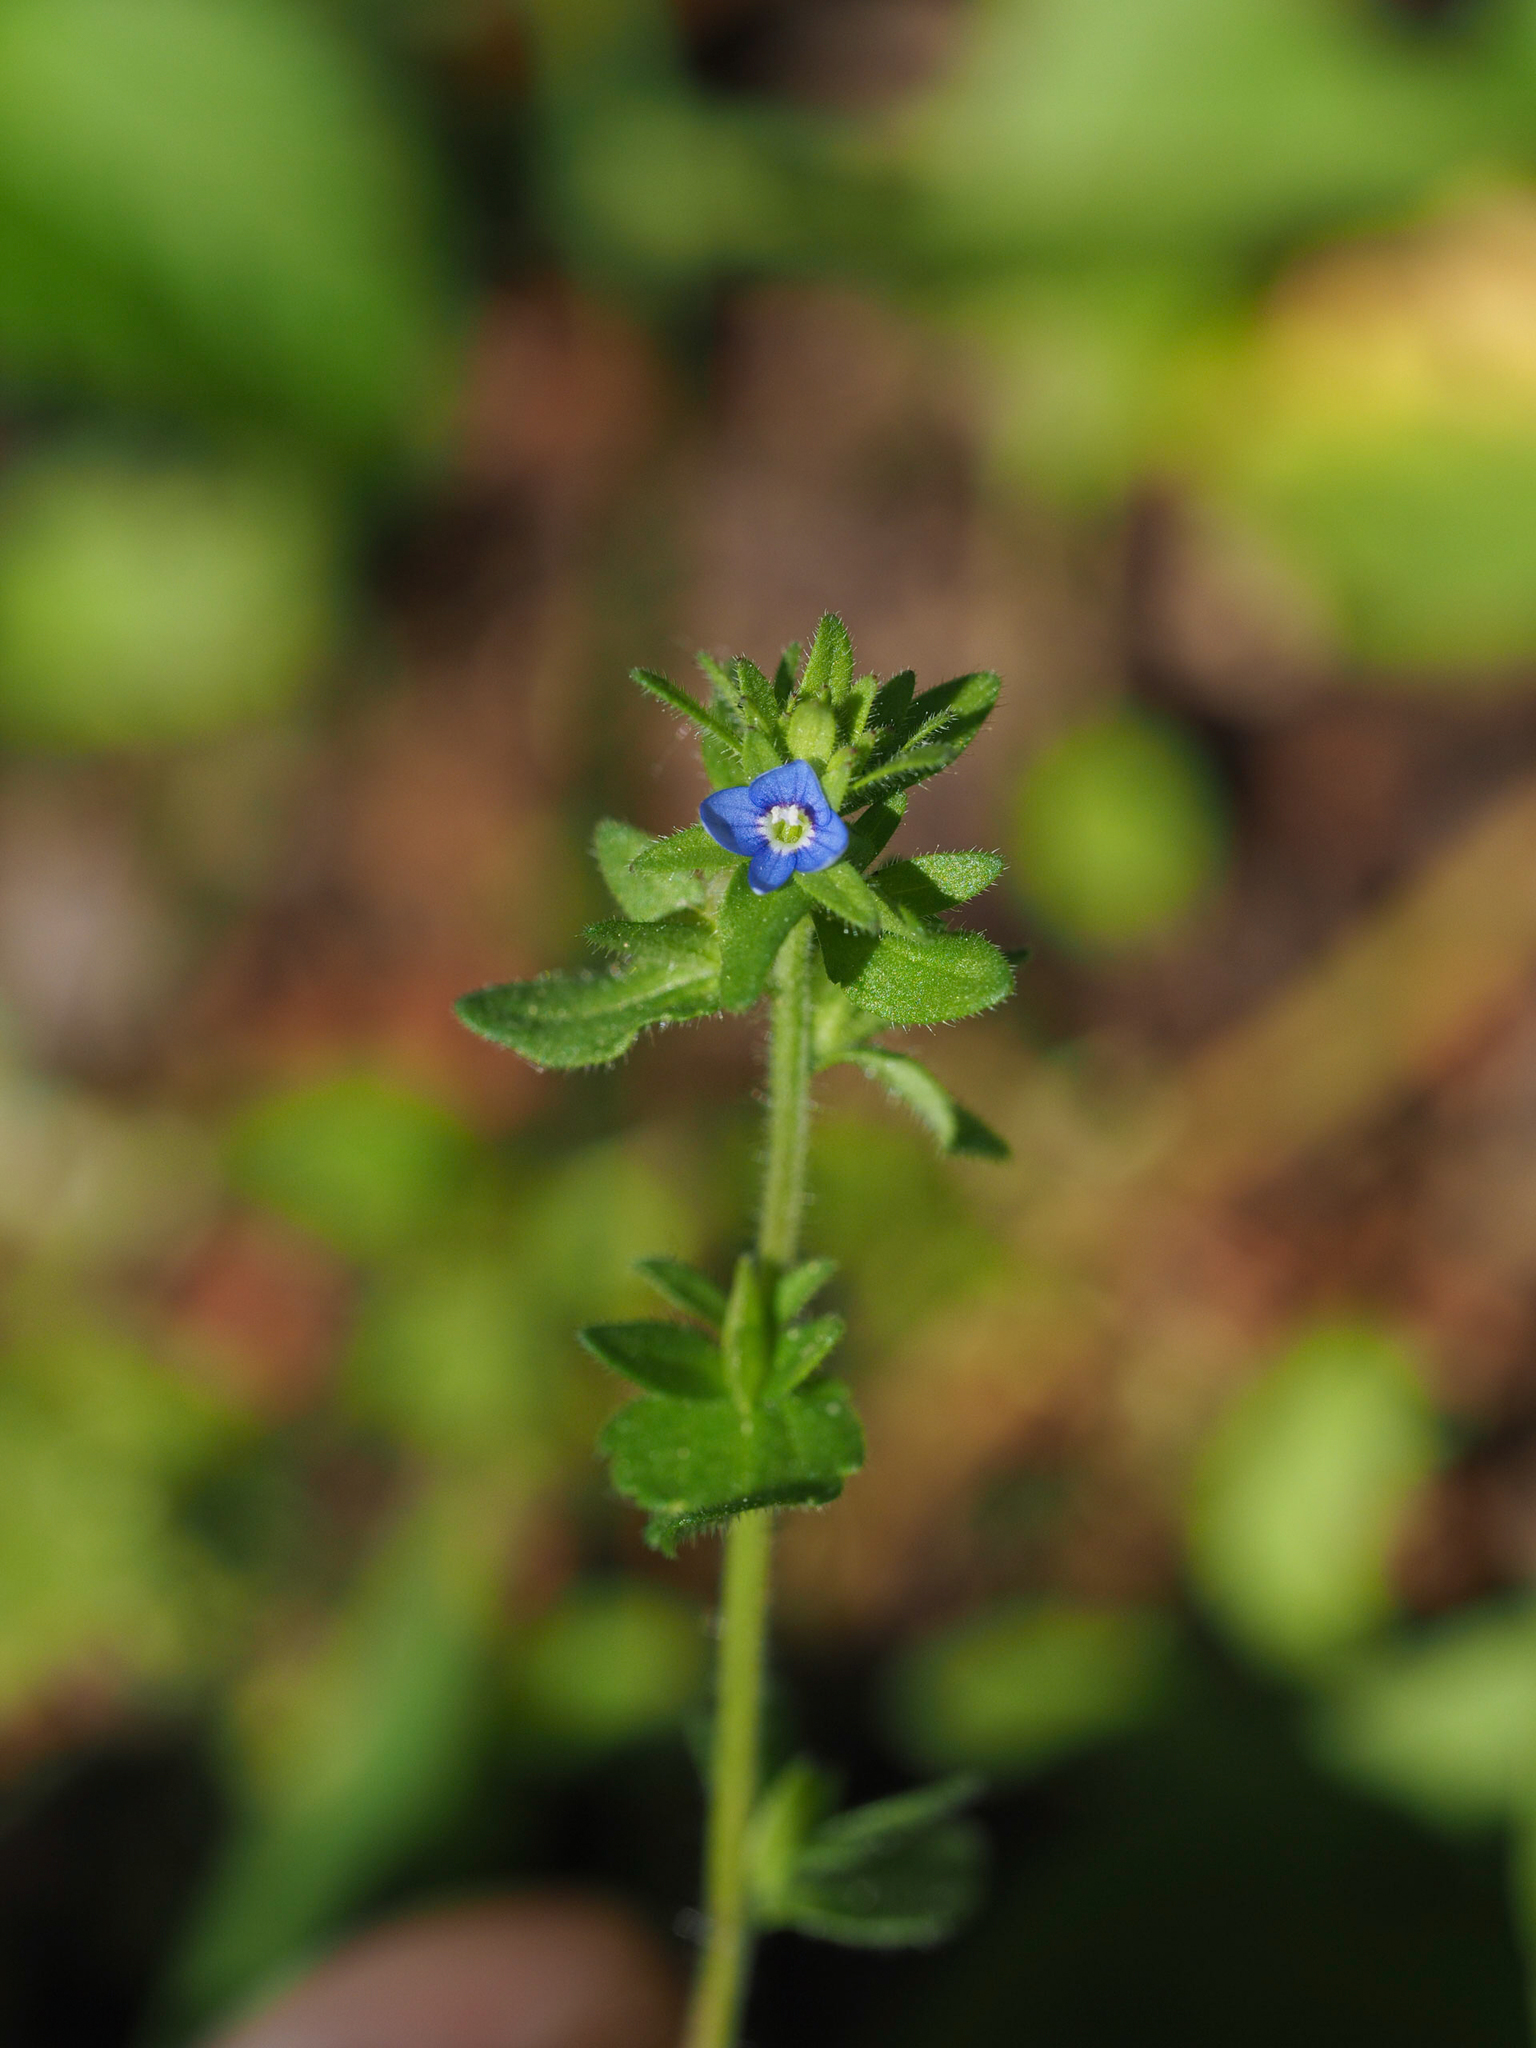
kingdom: Plantae
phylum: Tracheophyta
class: Magnoliopsida
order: Lamiales
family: Plantaginaceae
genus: Veronica
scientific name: Veronica arvensis
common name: Corn speedwell
